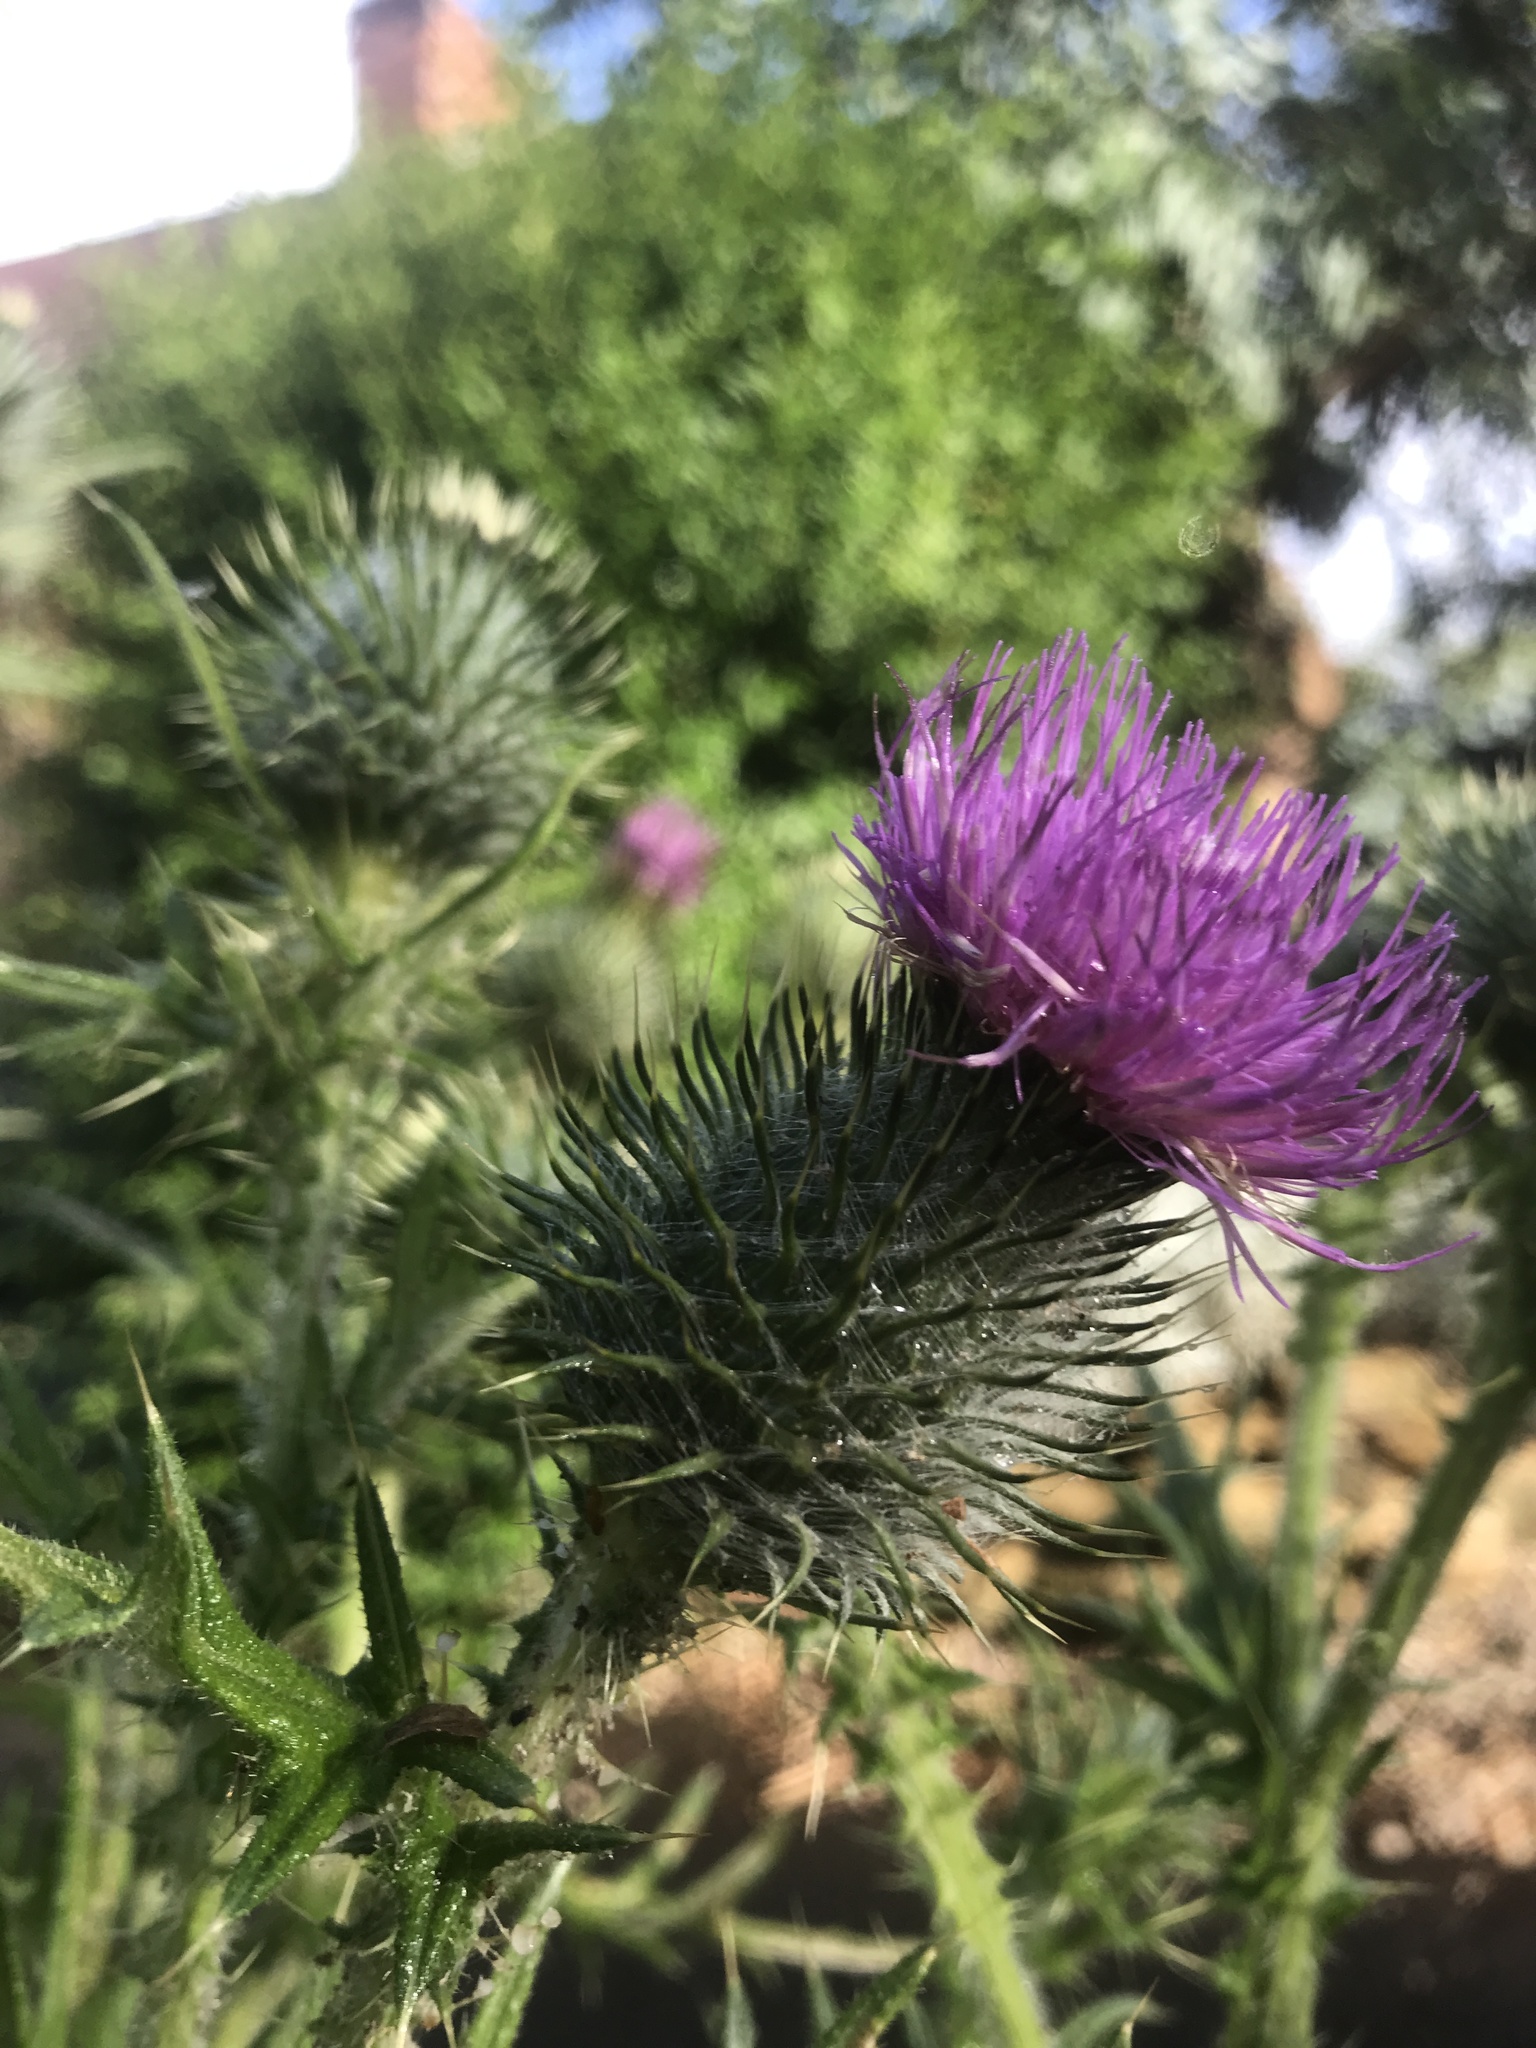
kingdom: Plantae
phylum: Tracheophyta
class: Magnoliopsida
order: Asterales
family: Asteraceae
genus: Cirsium
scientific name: Cirsium vulgare
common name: Bull thistle
